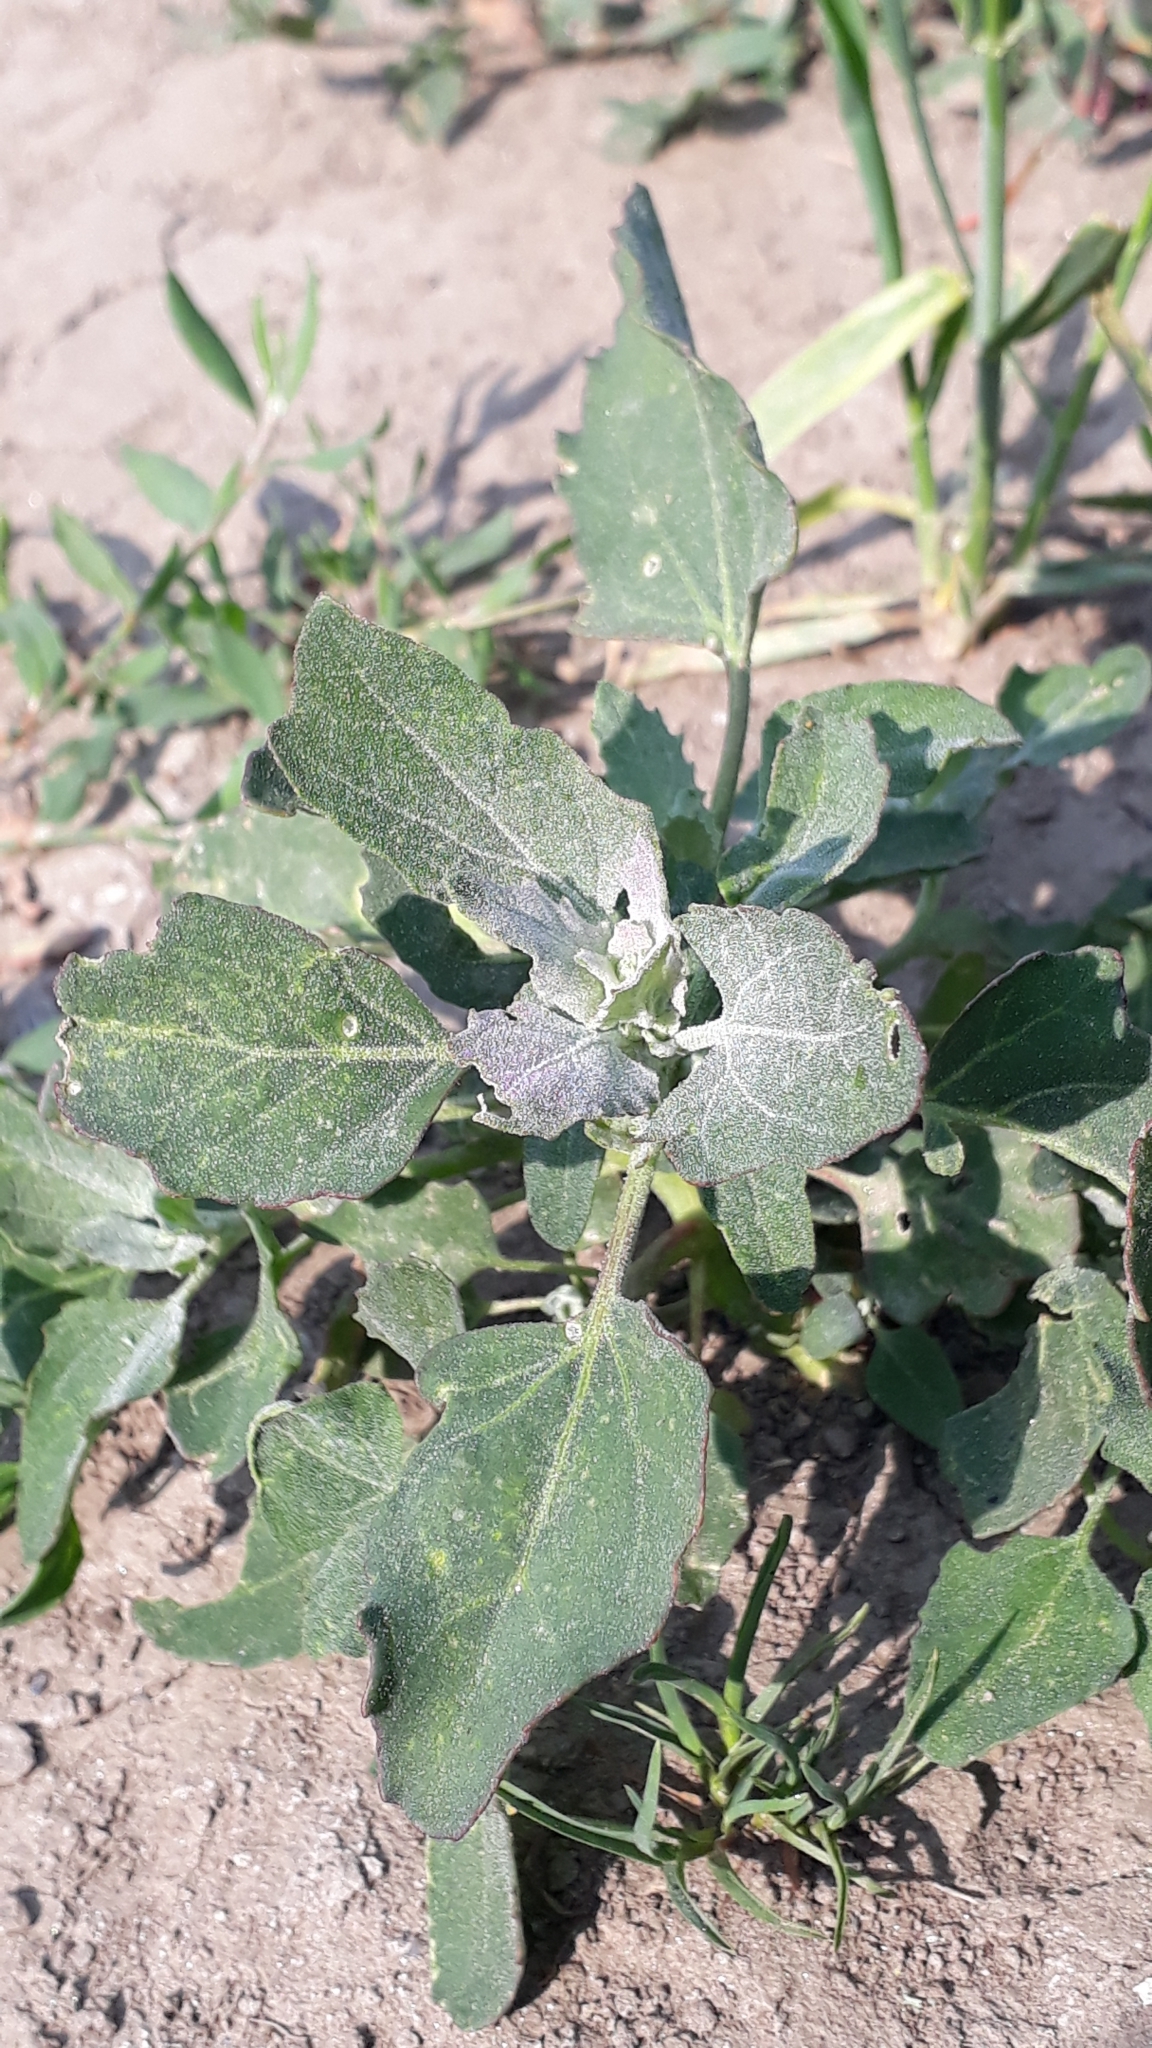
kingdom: Plantae
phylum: Tracheophyta
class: Magnoliopsida
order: Caryophyllales
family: Amaranthaceae
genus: Chenopodium
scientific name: Chenopodium album
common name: Fat-hen
